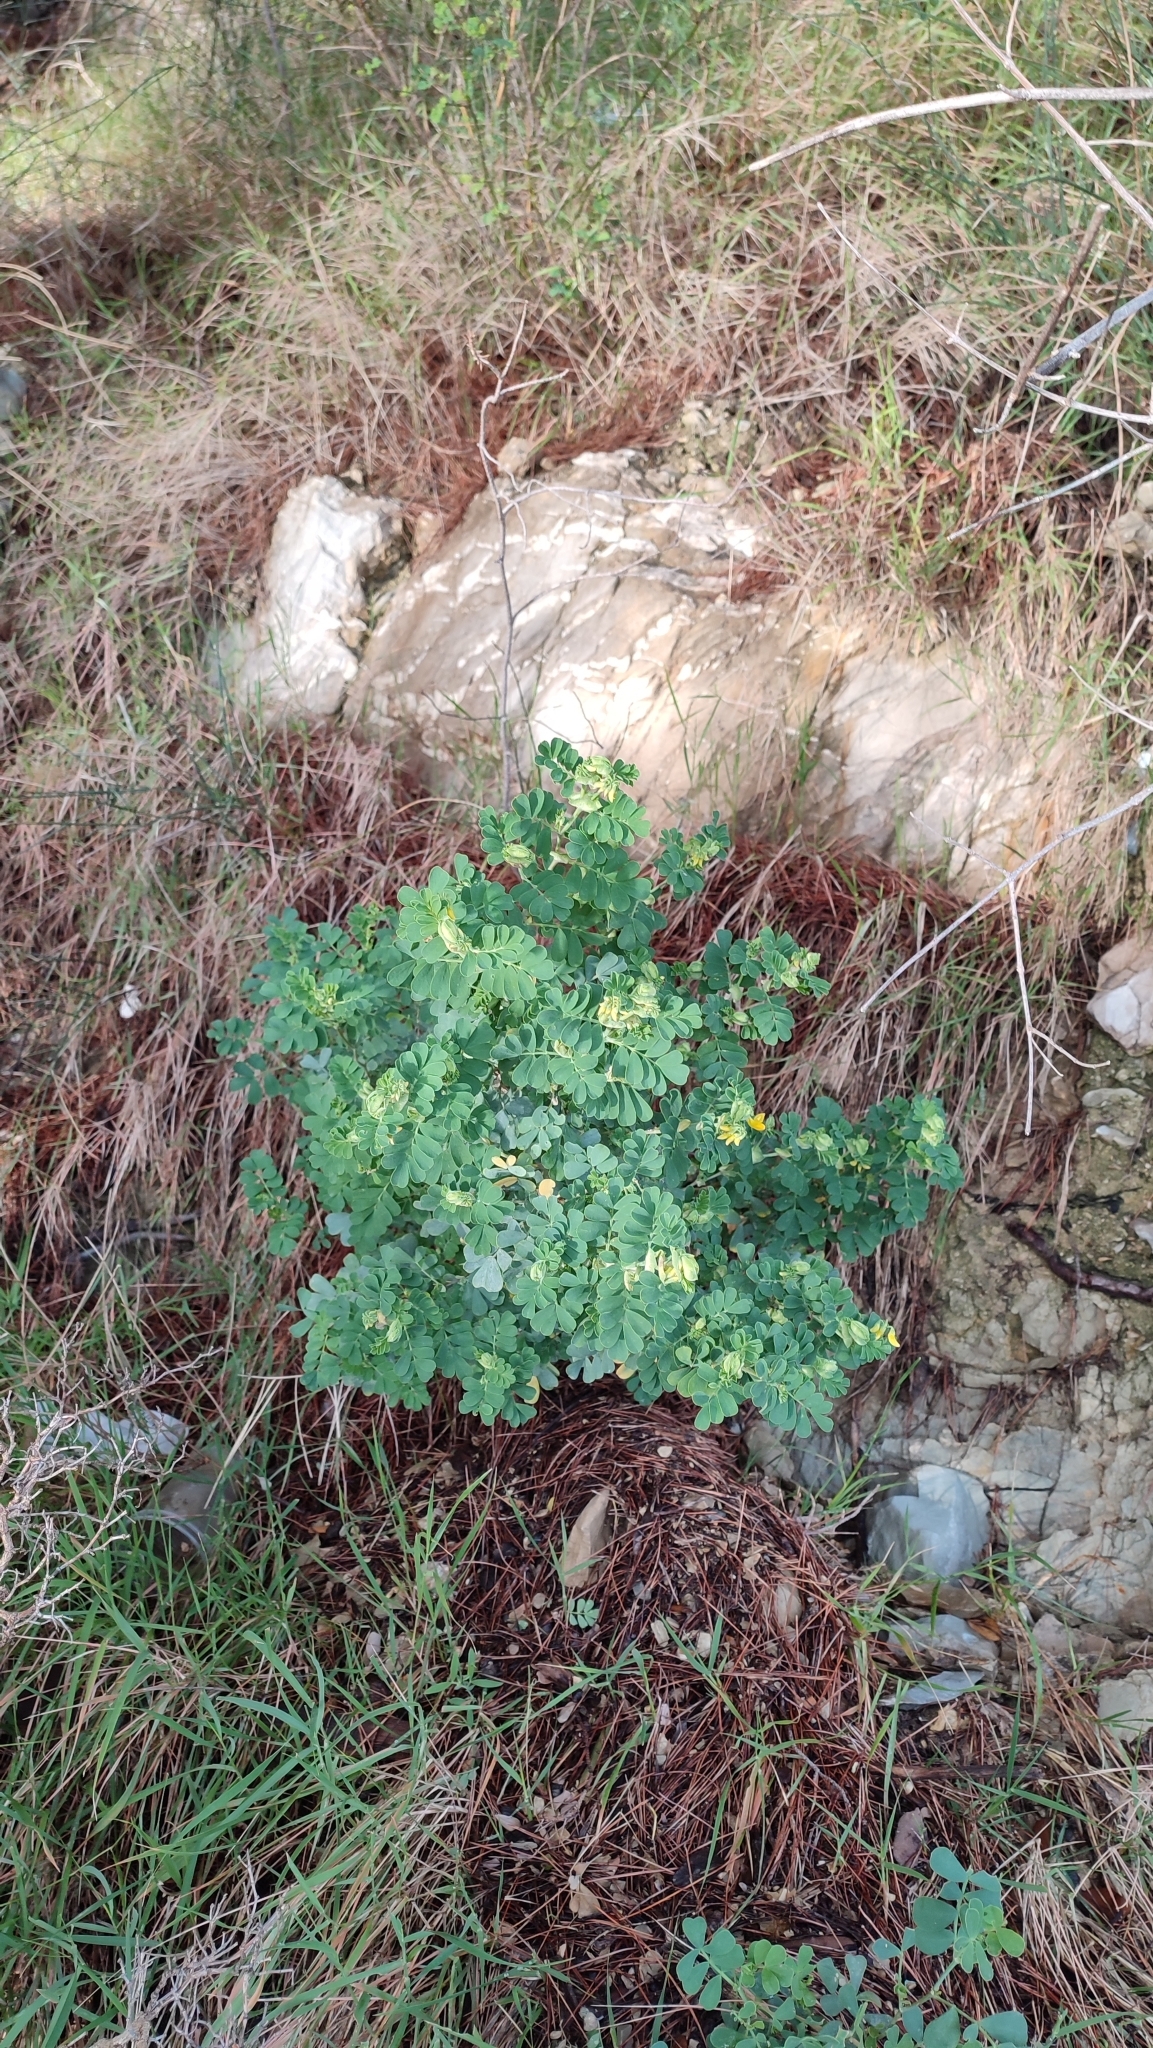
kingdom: Plantae
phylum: Tracheophyta
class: Magnoliopsida
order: Fabales
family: Fabaceae
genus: Coronilla
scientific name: Coronilla valentina
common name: Shrubby scorpion-vetch
